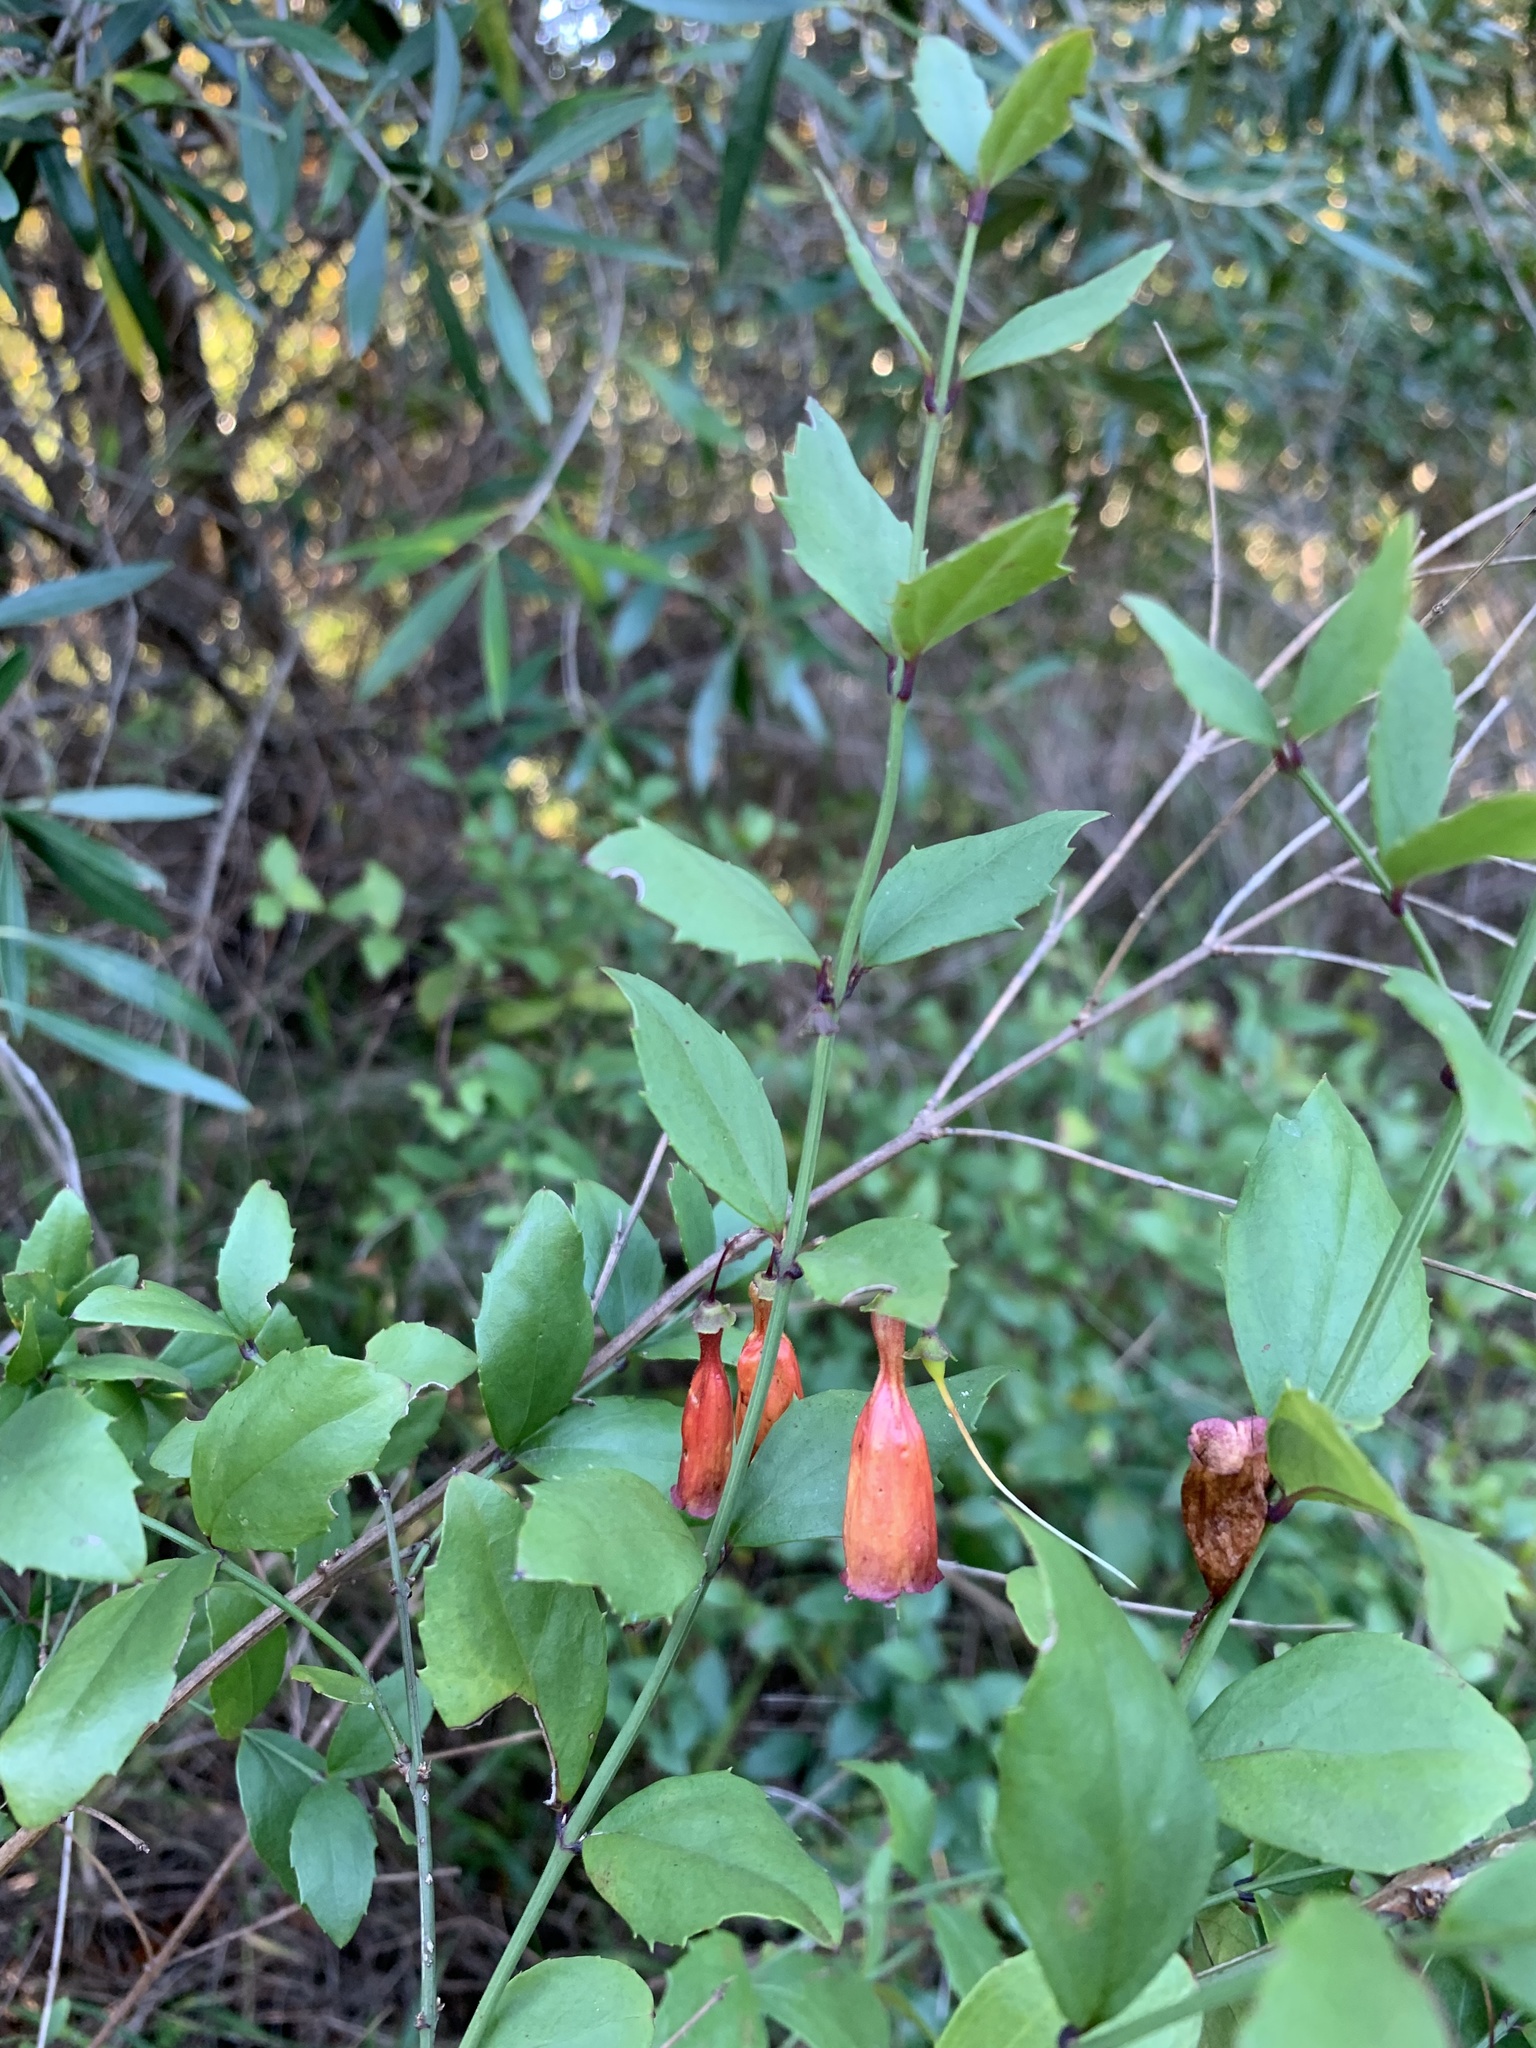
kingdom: Plantae
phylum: Tracheophyta
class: Magnoliopsida
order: Lamiales
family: Stilbaceae
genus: Halleria
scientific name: Halleria elliptica
